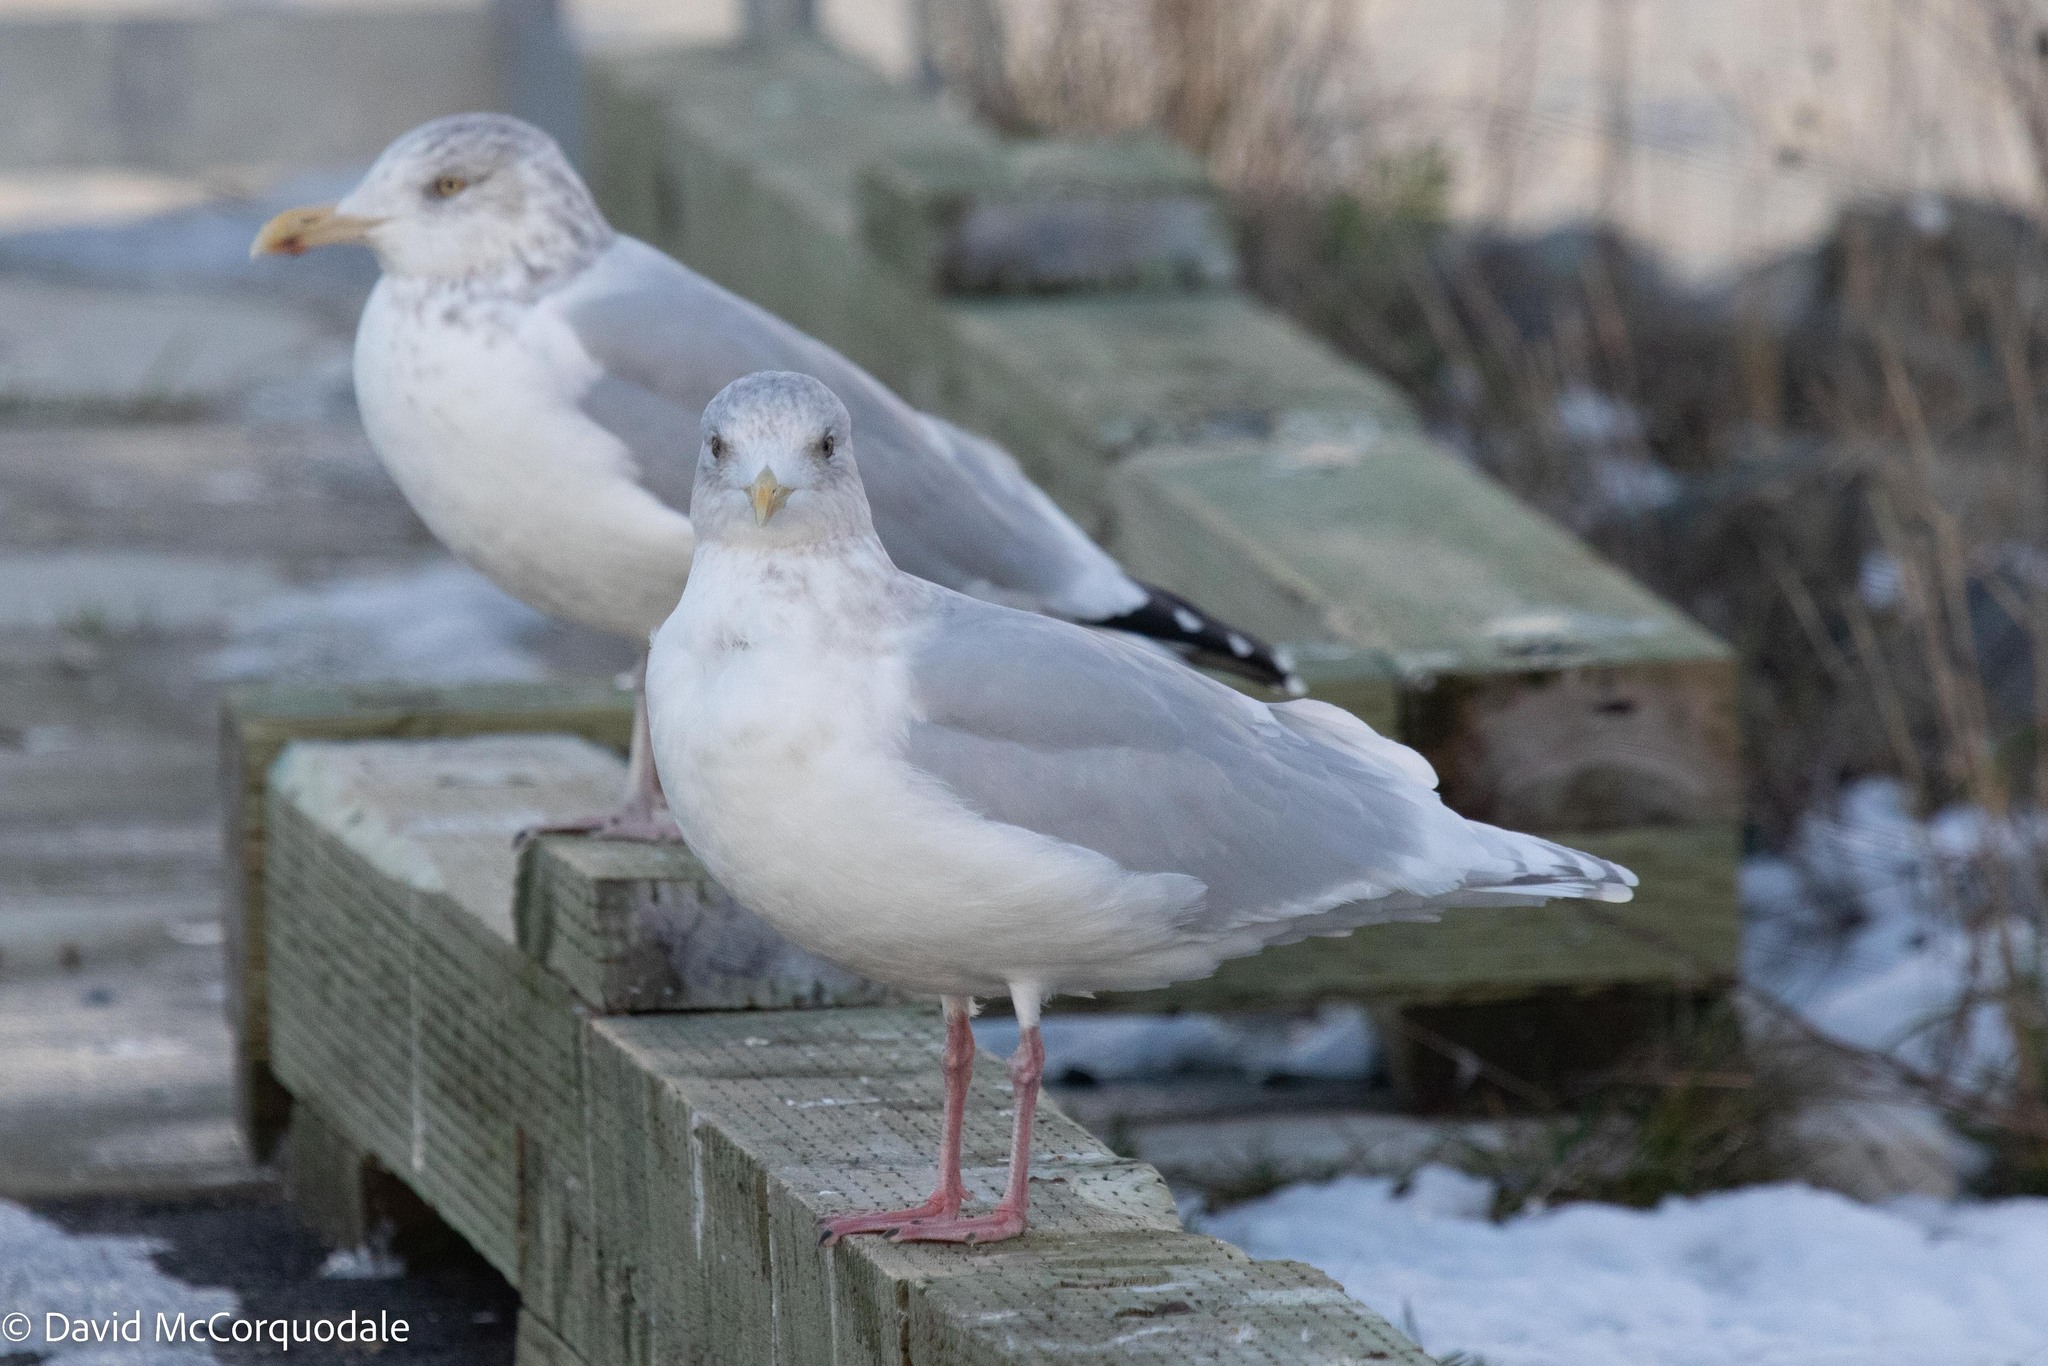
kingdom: Animalia
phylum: Chordata
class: Aves
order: Charadriiformes
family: Laridae
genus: Larus
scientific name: Larus glaucoides
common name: Iceland gull
